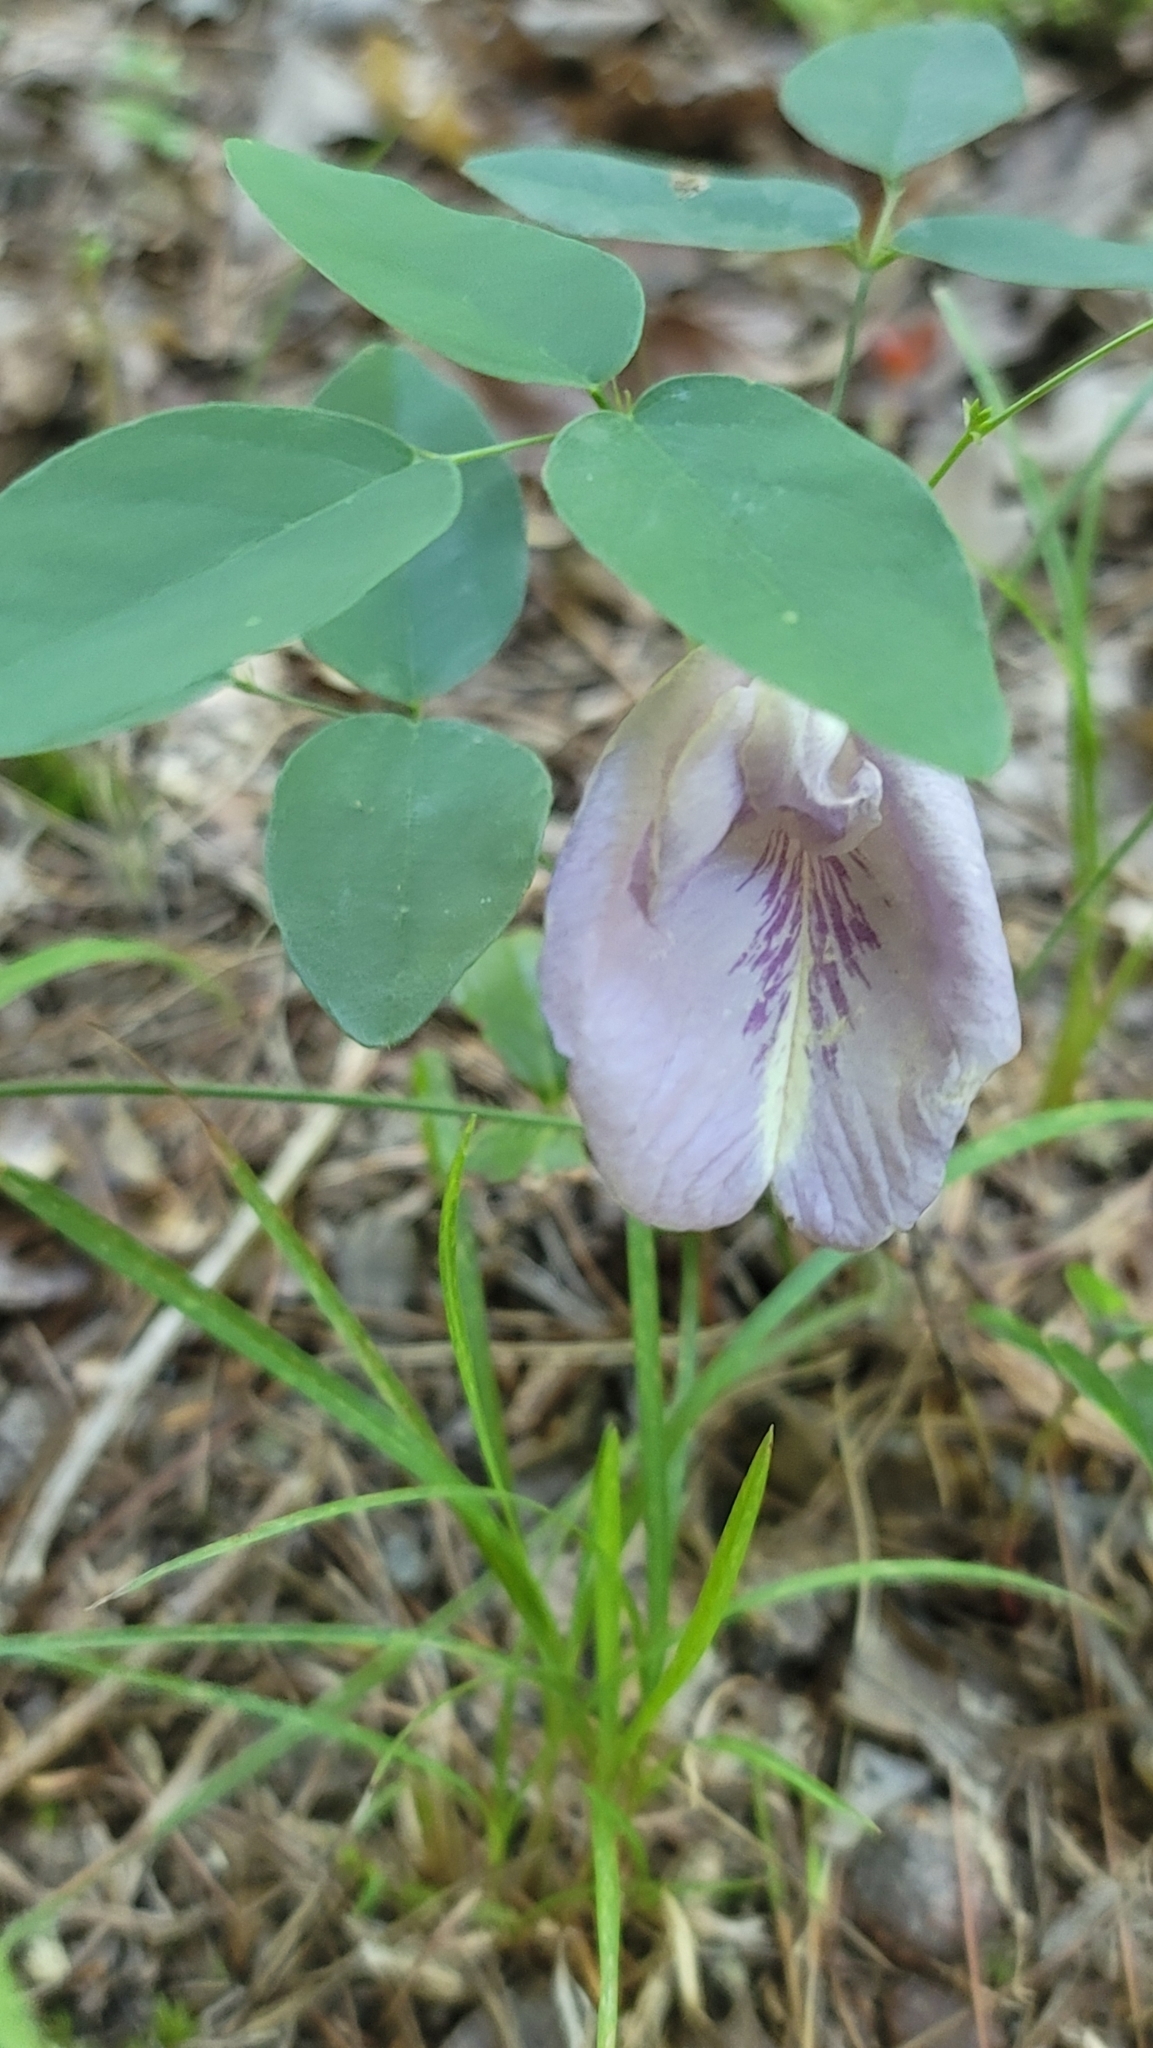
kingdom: Plantae
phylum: Tracheophyta
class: Magnoliopsida
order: Fabales
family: Fabaceae
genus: Clitoria
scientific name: Clitoria mariana
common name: Butterfly-pea
